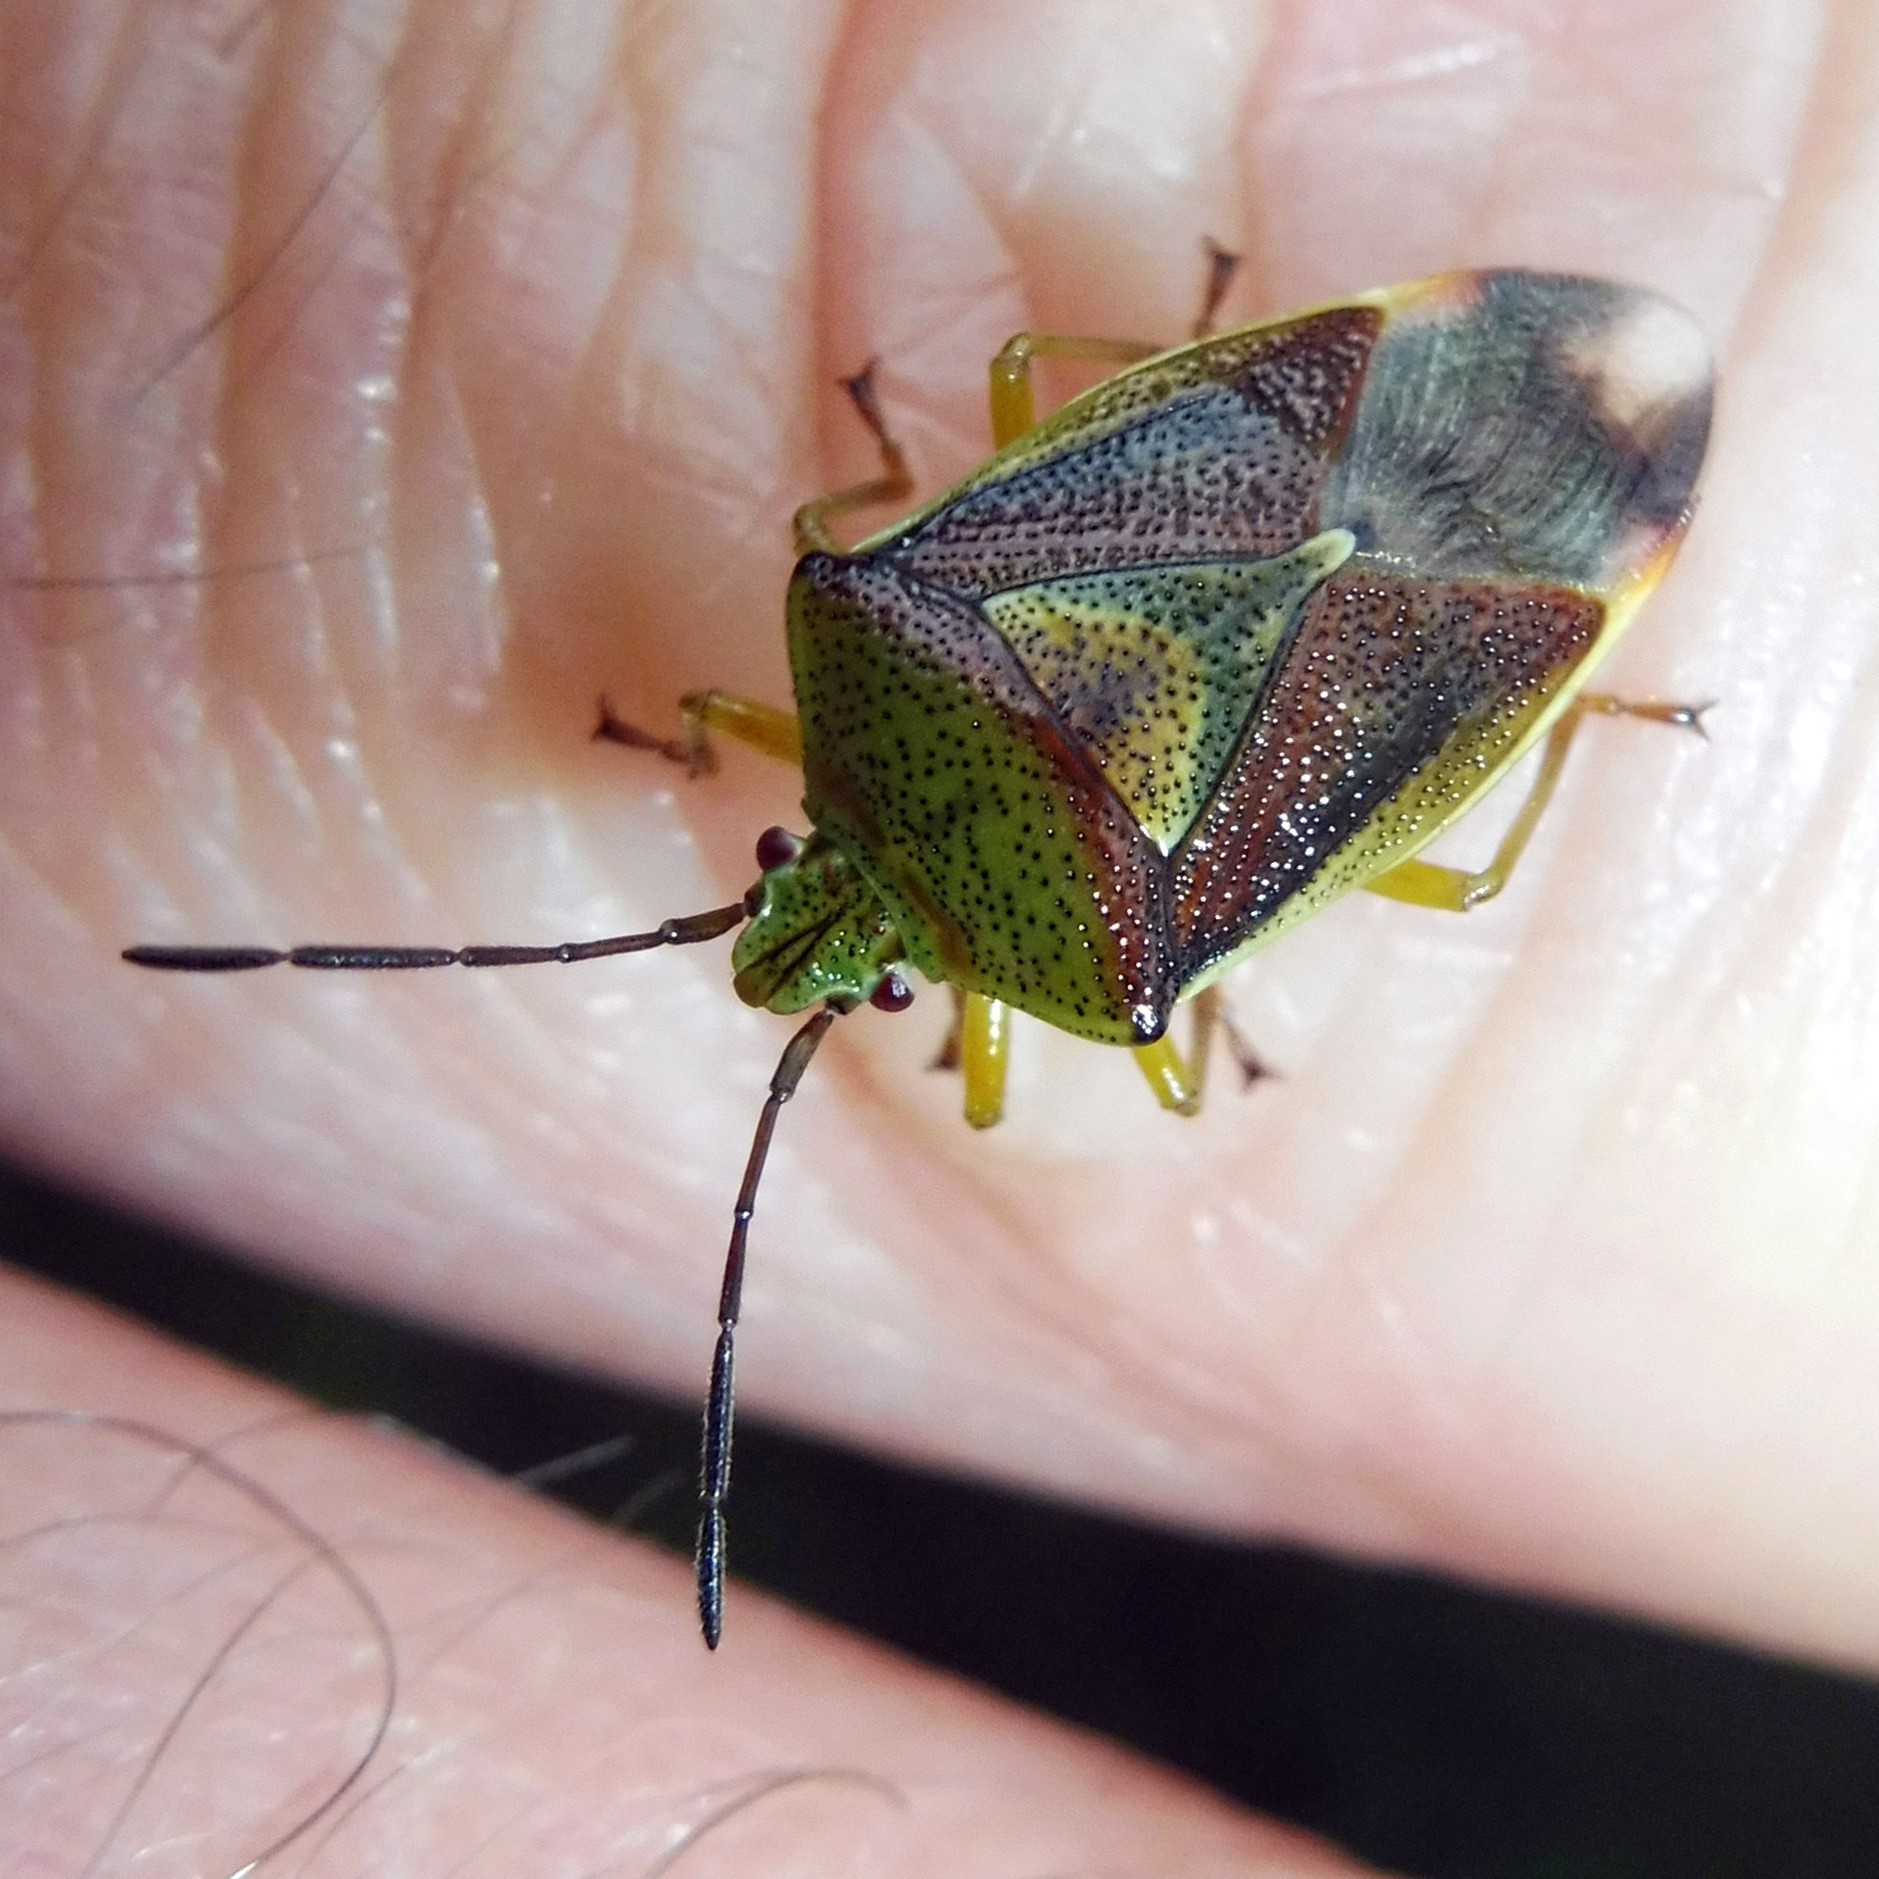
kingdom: Animalia
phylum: Arthropoda
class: Insecta
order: Hemiptera
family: Acanthosomatidae
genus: Elasmostethus
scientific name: Elasmostethus interstinctus
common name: Birch shieldbug
